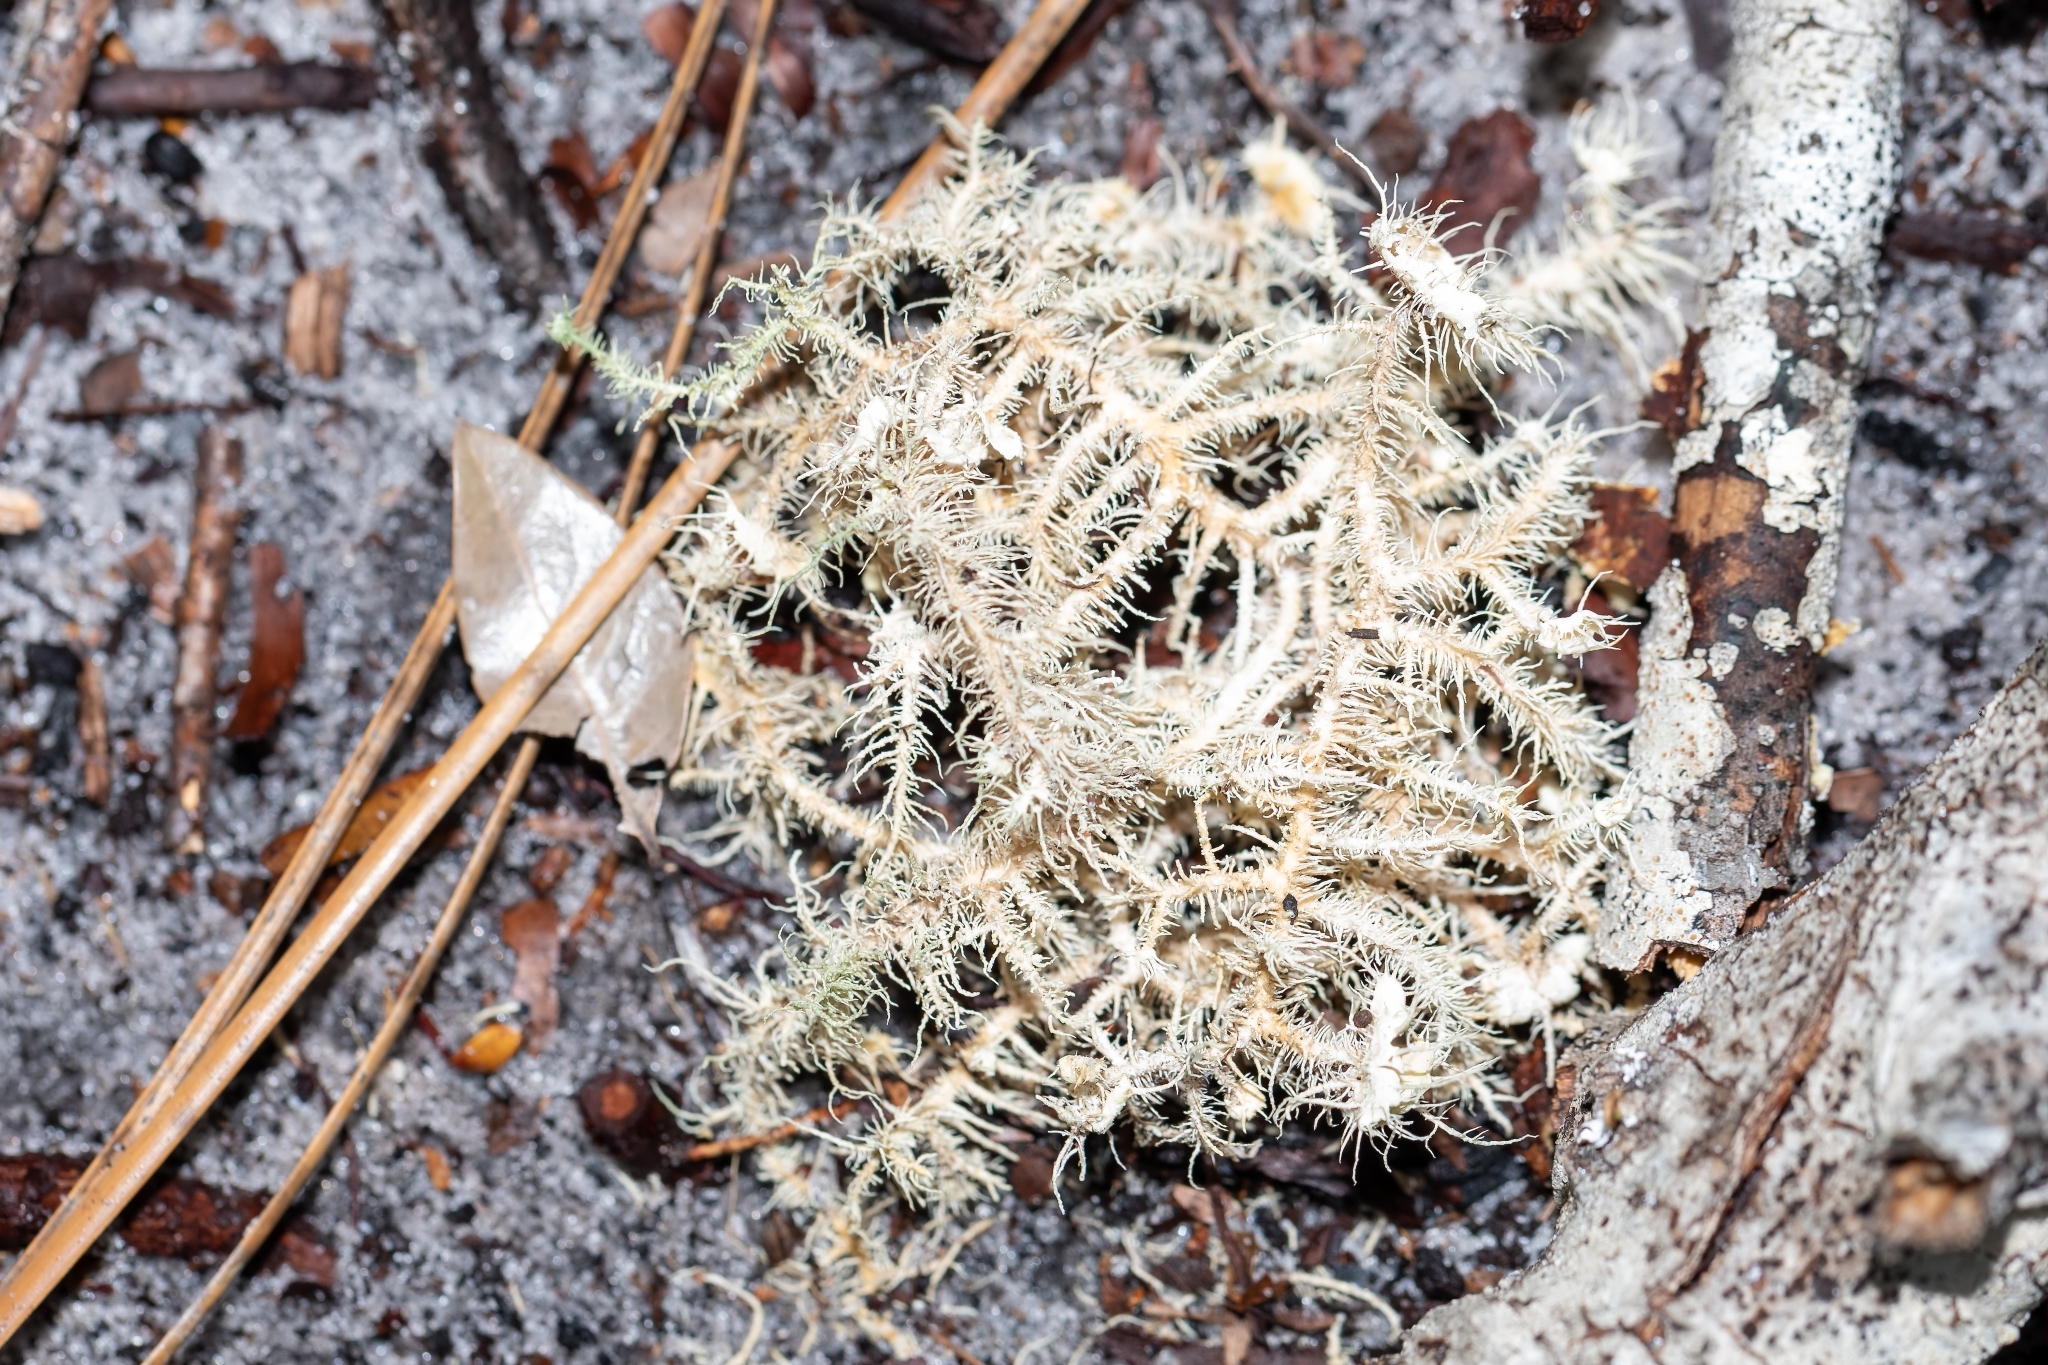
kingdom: Fungi
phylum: Ascomycota
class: Lecanoromycetes
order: Lecanorales
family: Parmeliaceae
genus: Usnea
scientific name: Usnea strigosa
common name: Bushy beard lichen
